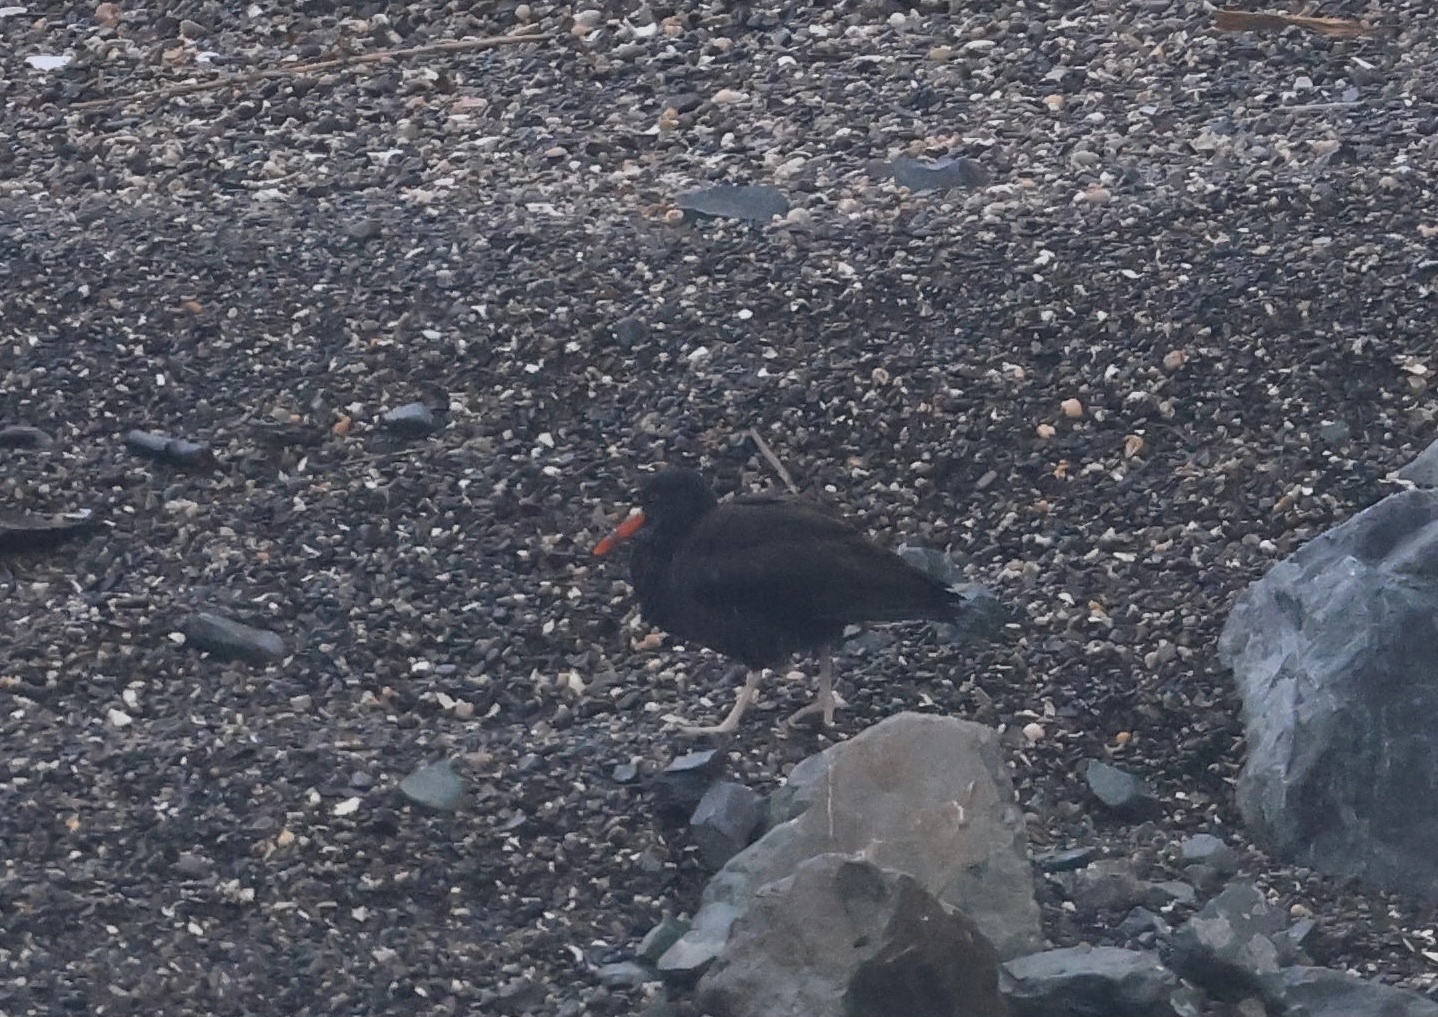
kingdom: Animalia
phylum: Chordata
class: Aves
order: Charadriiformes
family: Haematopodidae
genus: Haematopus
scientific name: Haematopus bachmani
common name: Black oystercatcher
